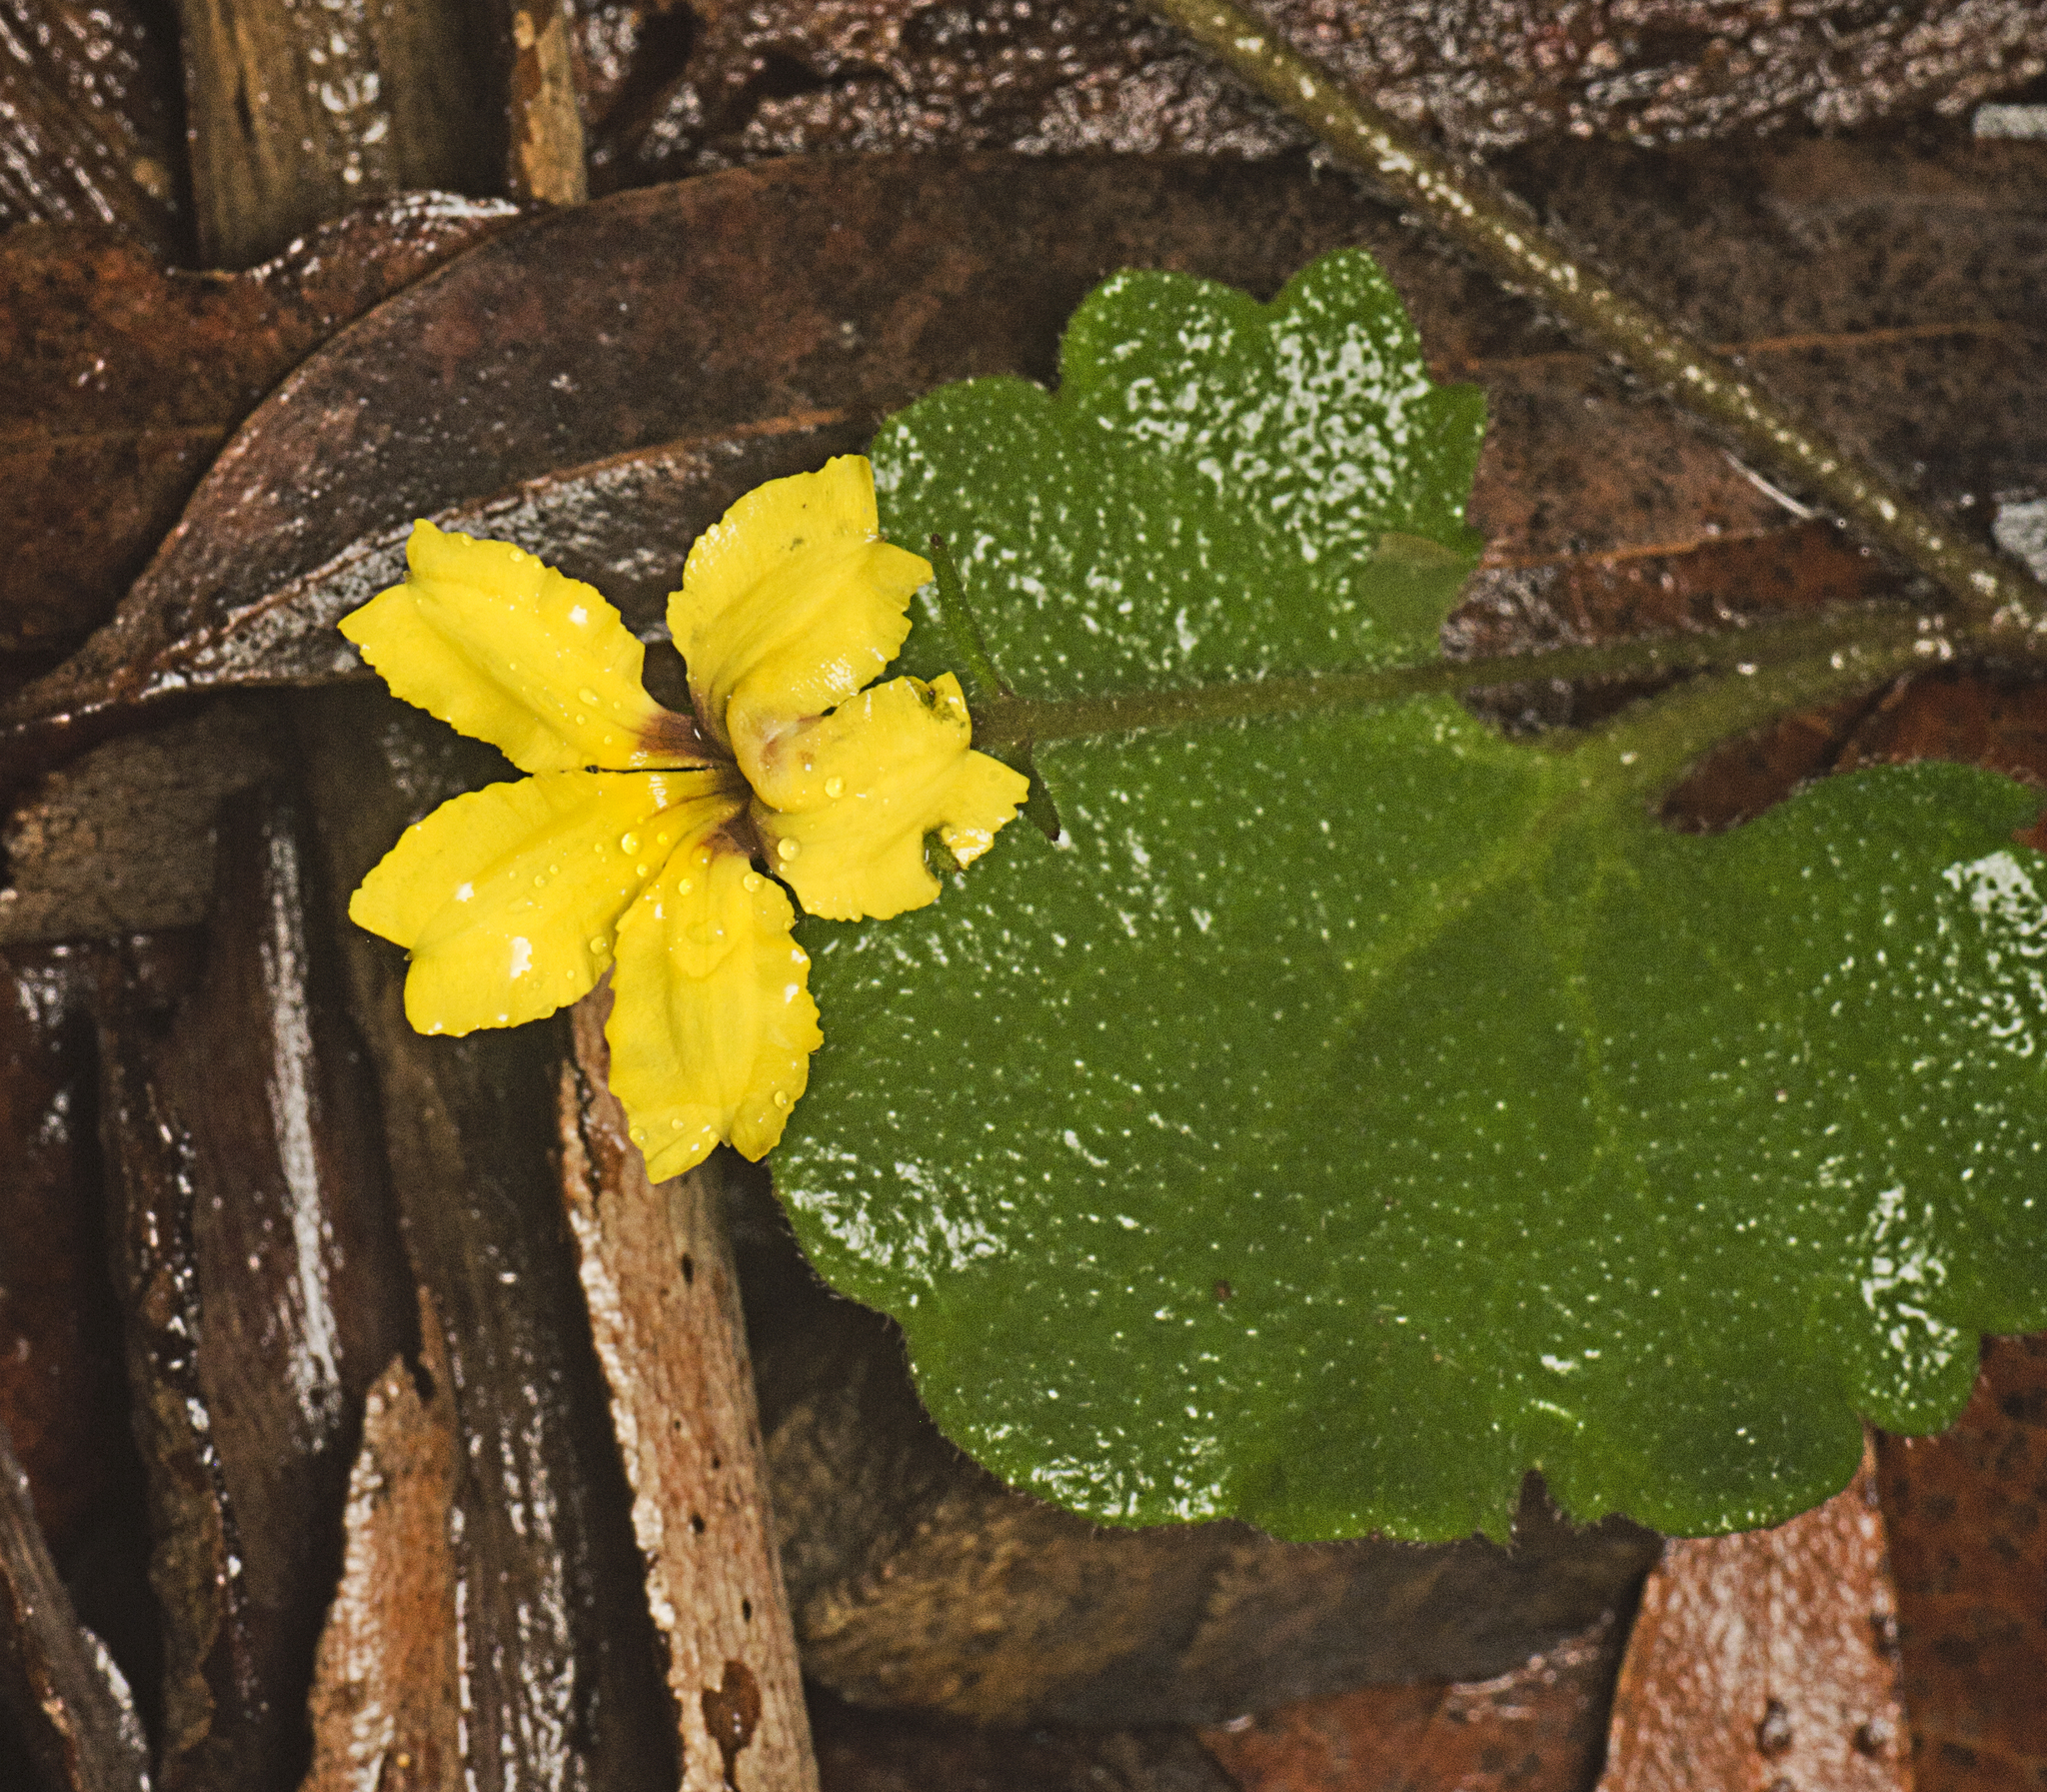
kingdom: Plantae
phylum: Tracheophyta
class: Magnoliopsida
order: Asterales
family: Goodeniaceae
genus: Goodenia
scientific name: Goodenia rotundifolia
